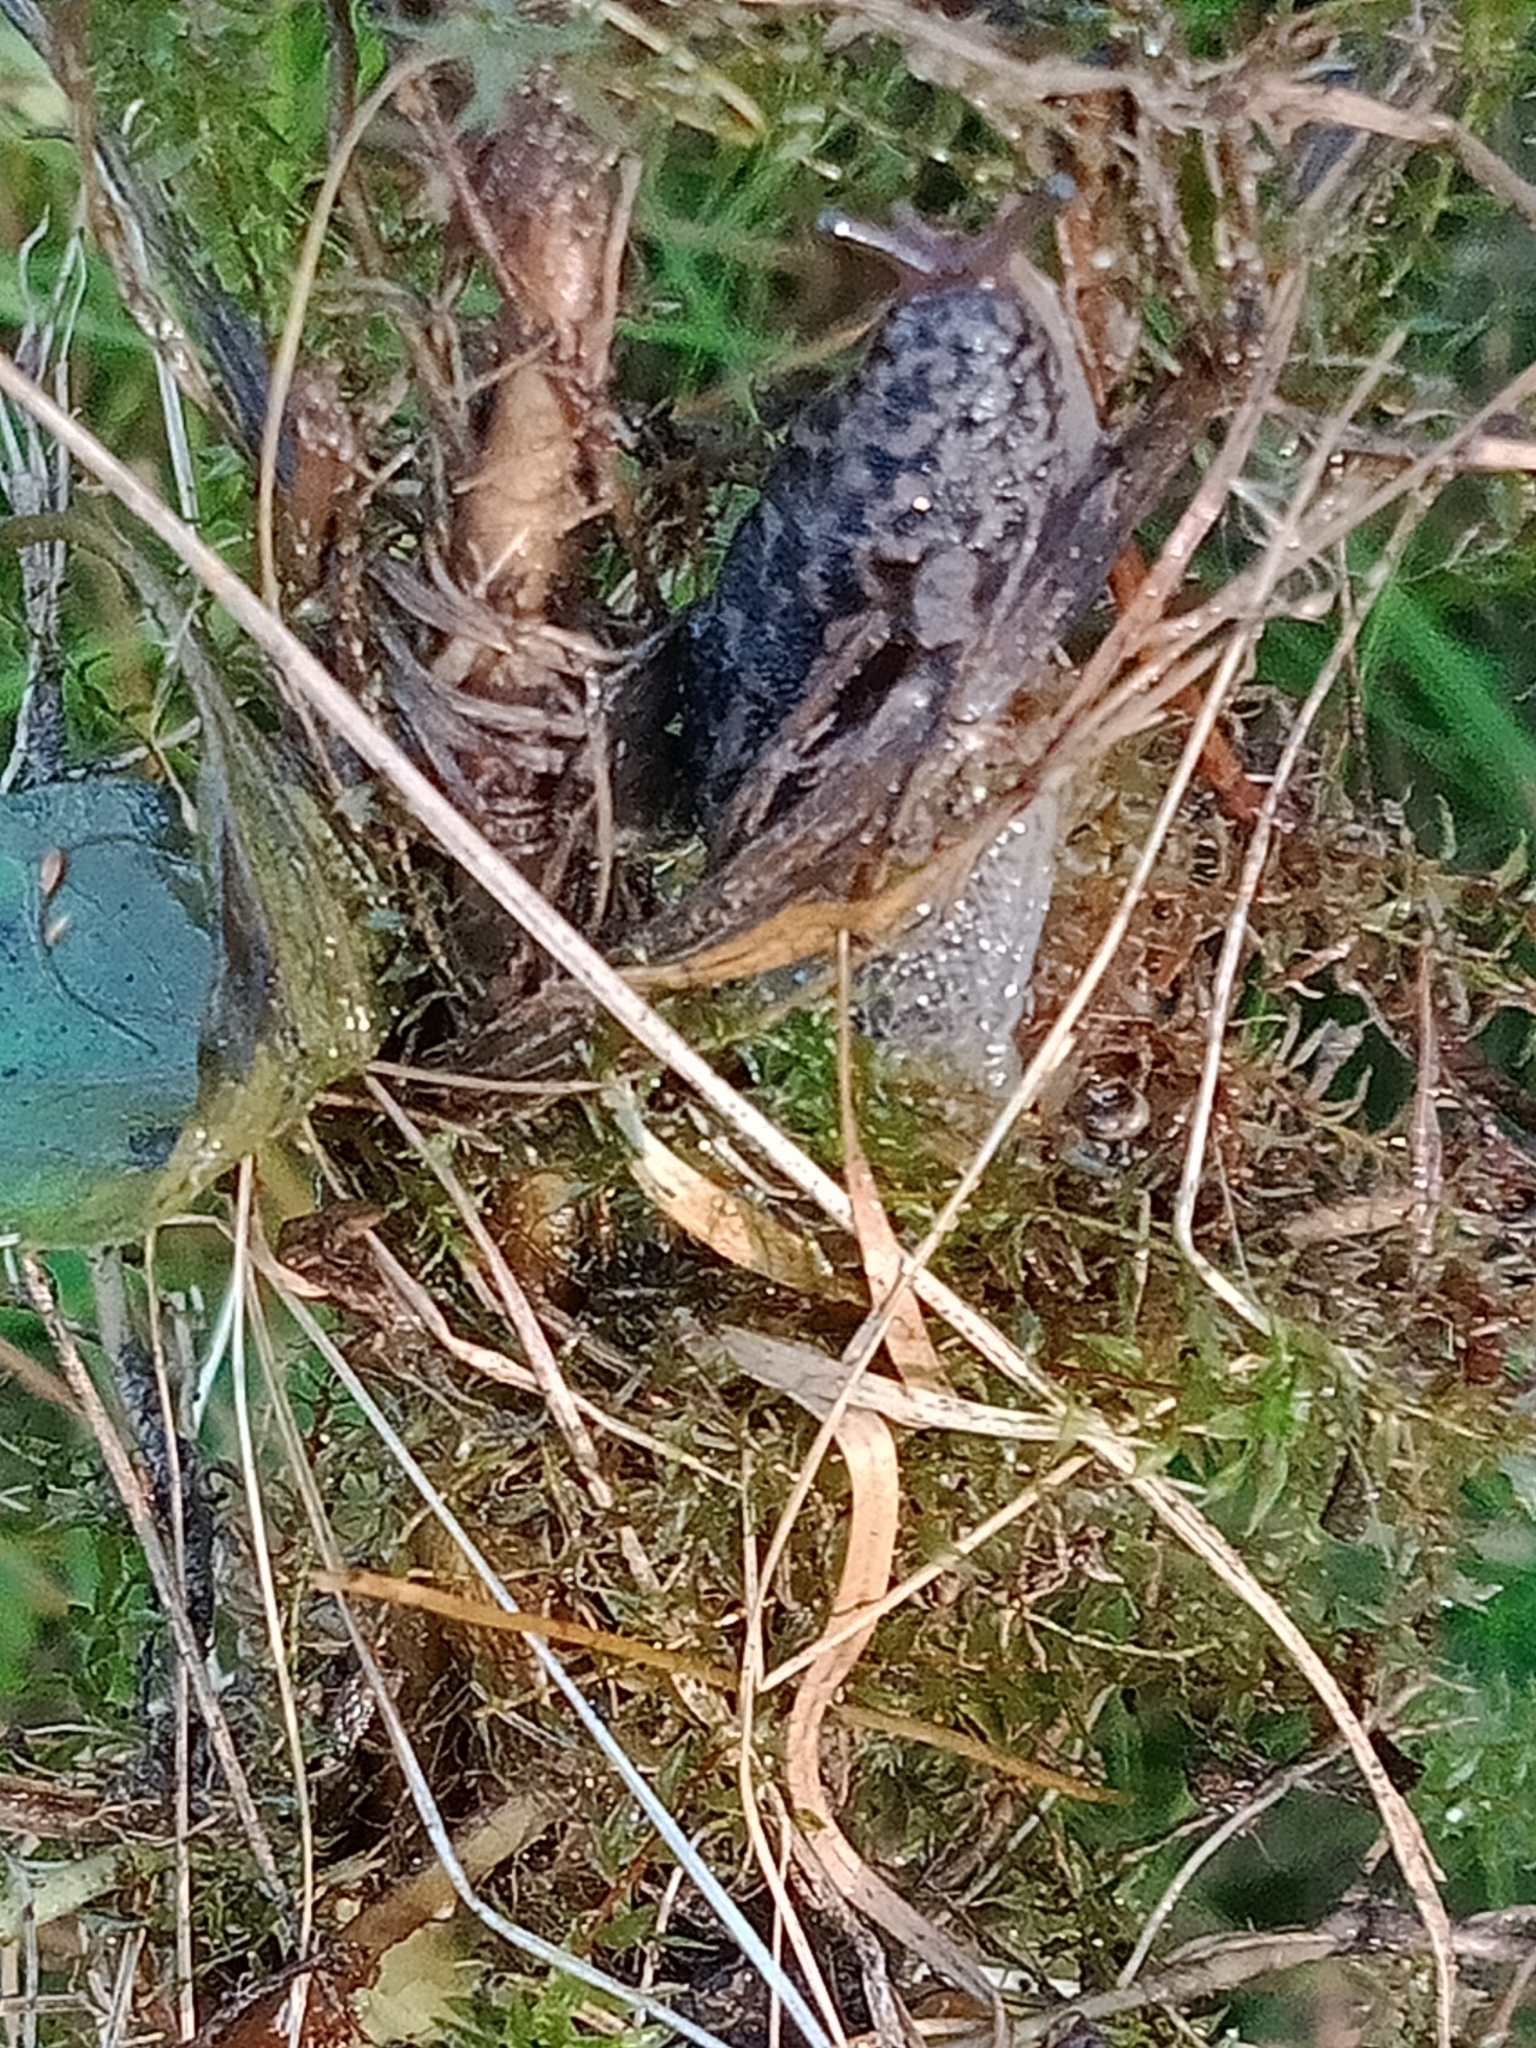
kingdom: Animalia
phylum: Mollusca
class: Gastropoda
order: Stylommatophora
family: Limacidae
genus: Limax
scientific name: Limax maximus
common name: Great grey slug
